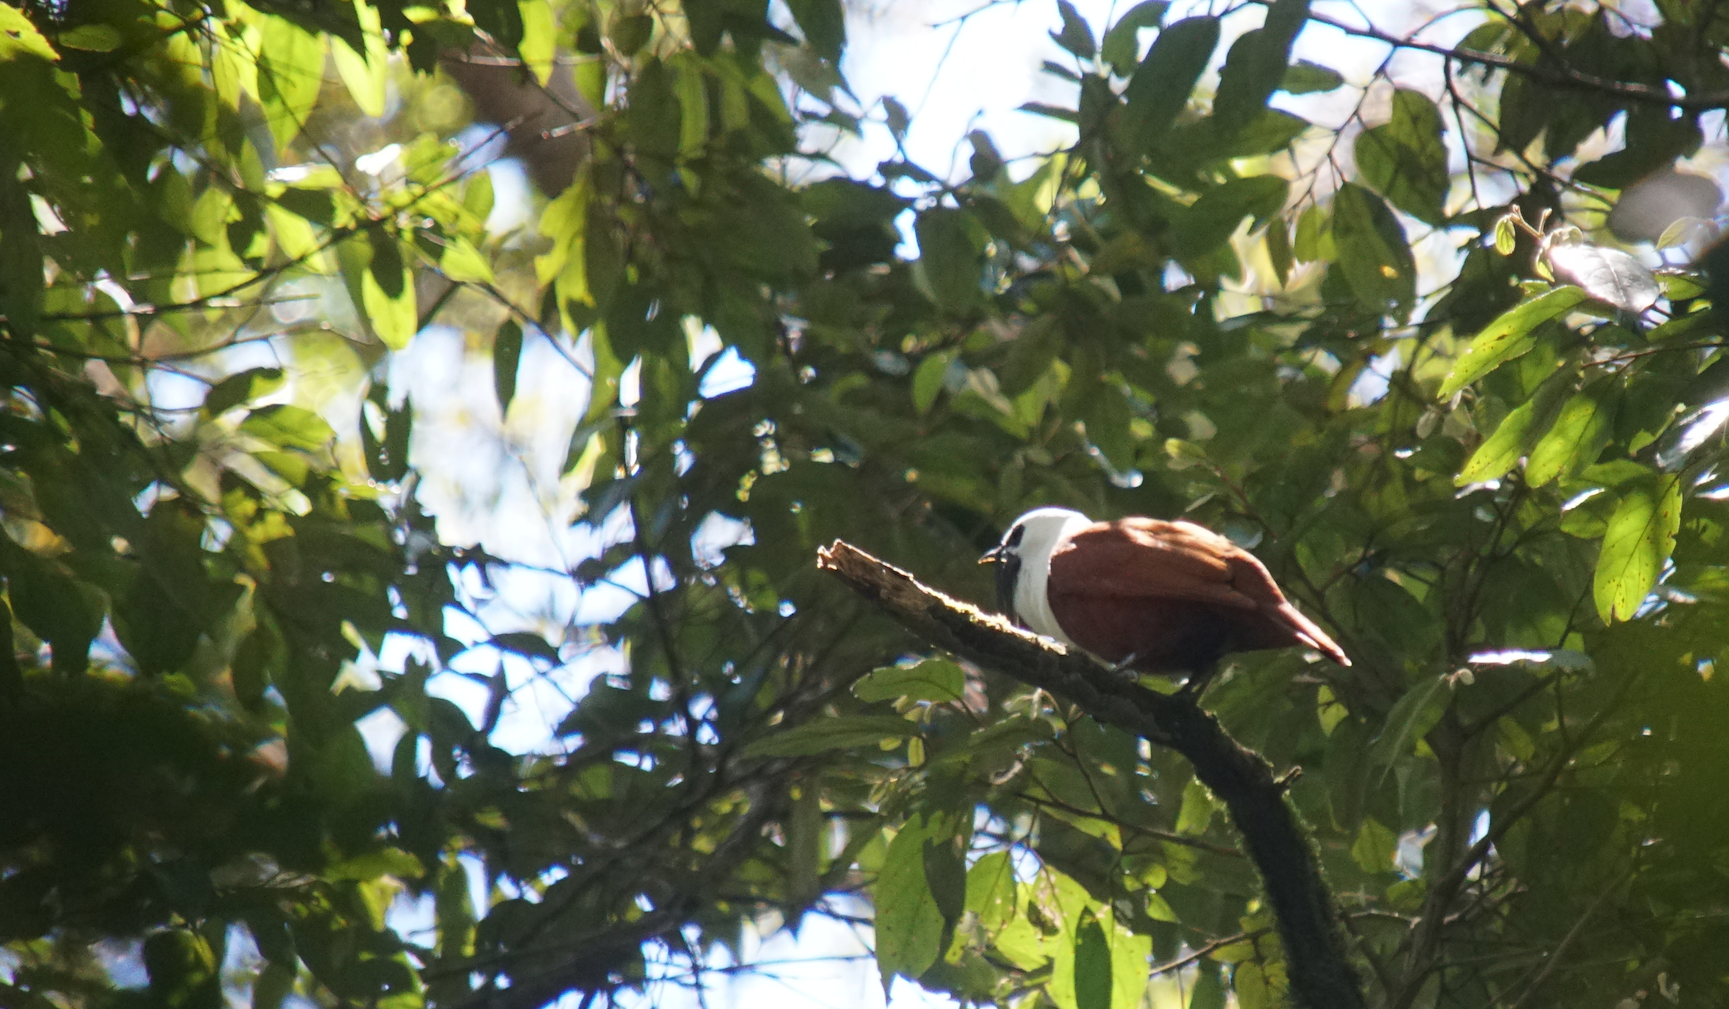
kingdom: Animalia
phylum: Chordata
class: Aves
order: Passeriformes
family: Cotingidae
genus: Procnias
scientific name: Procnias tricarunculatus
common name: Three-wattled bellbird
